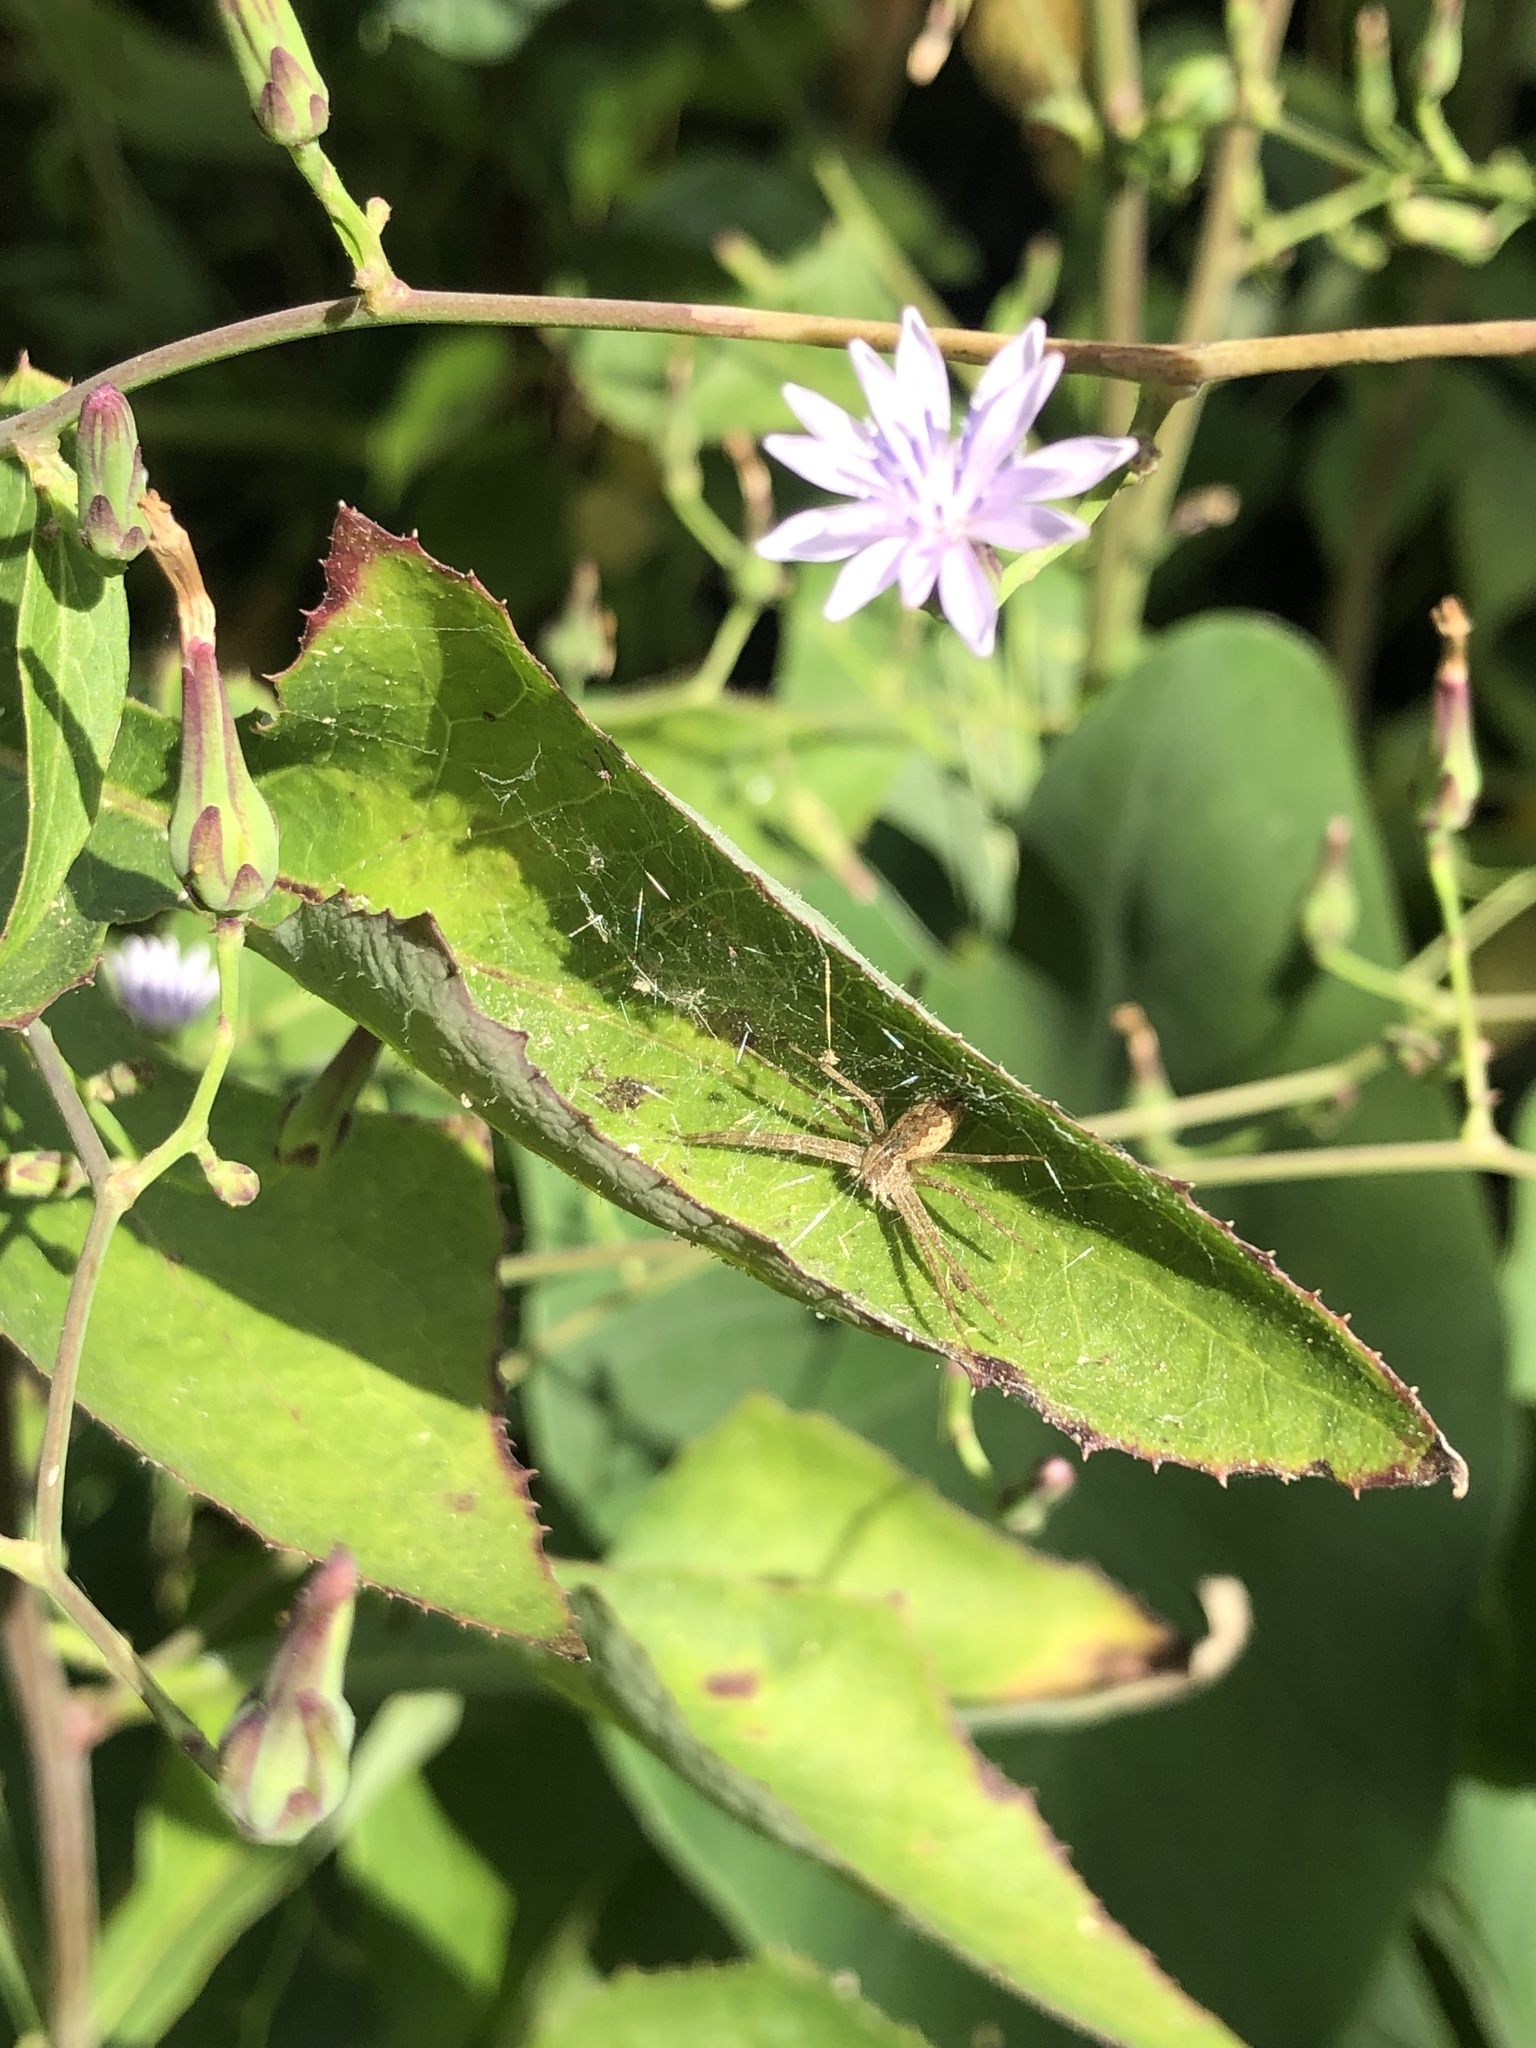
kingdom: Animalia
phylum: Arthropoda
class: Arachnida
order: Araneae
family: Pisauridae
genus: Pisaurina
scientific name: Pisaurina mira
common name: American nursery web spider
